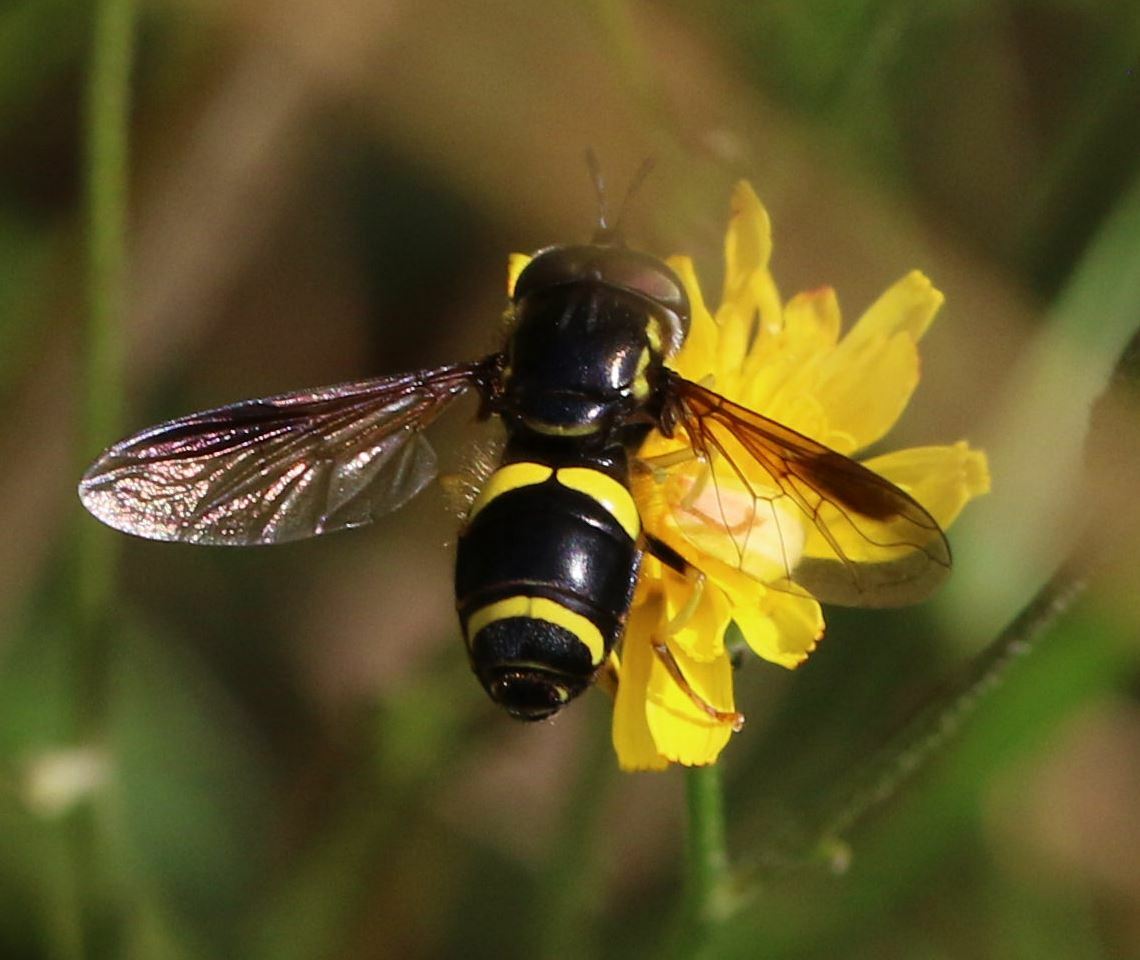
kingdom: Animalia
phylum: Arthropoda
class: Insecta
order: Diptera
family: Syrphidae
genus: Chrysotoxum
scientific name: Chrysotoxum bicincta
